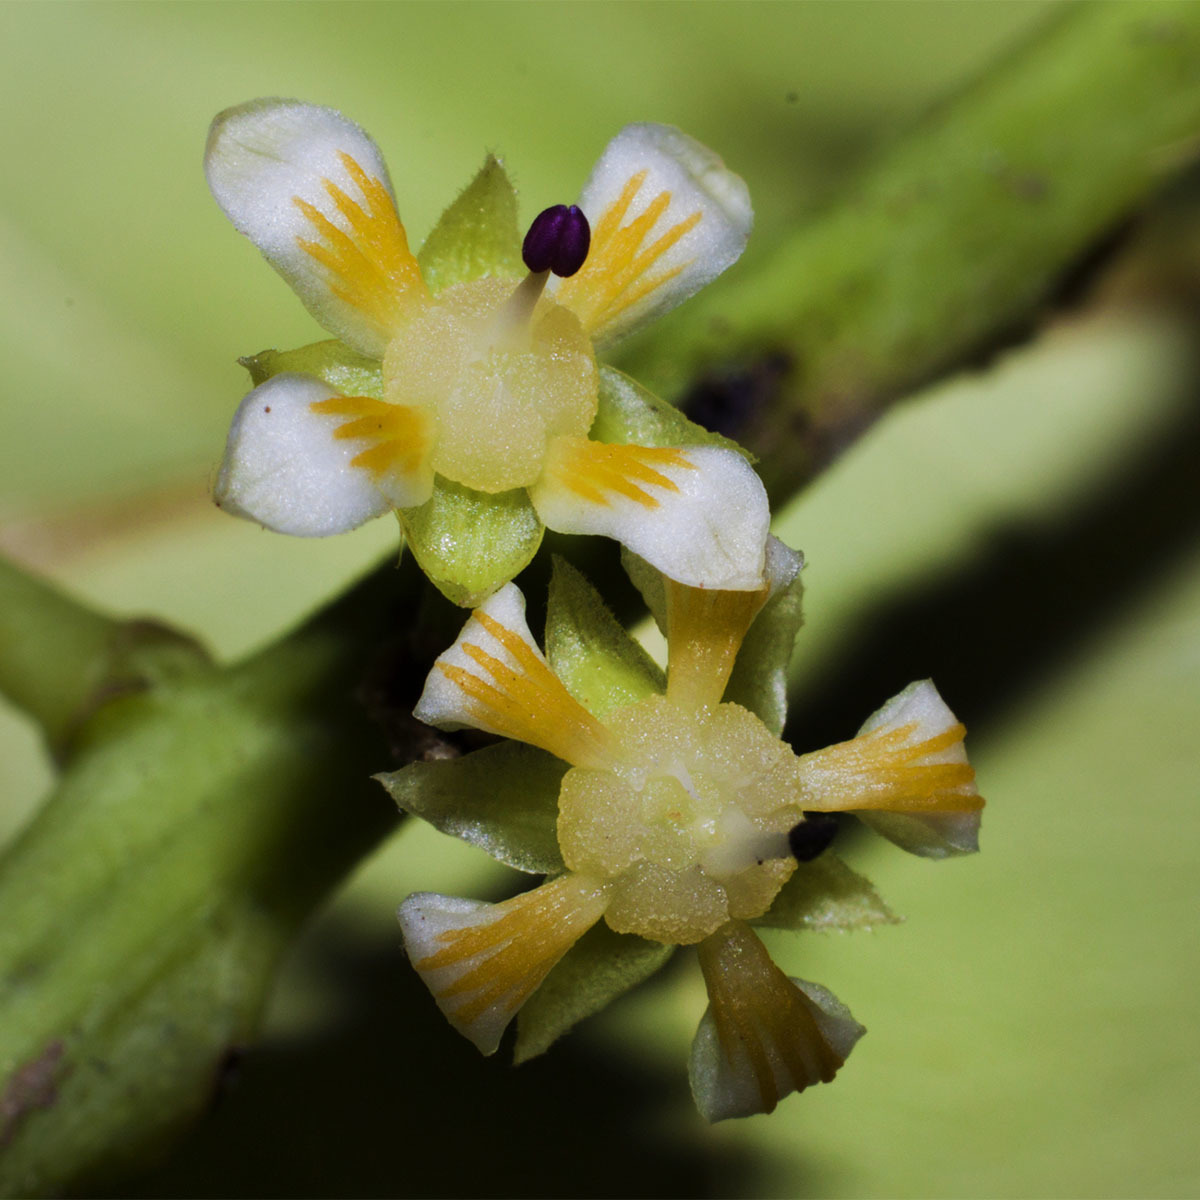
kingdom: Plantae
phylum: Tracheophyta
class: Magnoliopsida
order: Sapindales
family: Anacardiaceae
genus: Mangifera
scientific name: Mangifera indica
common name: Mango
